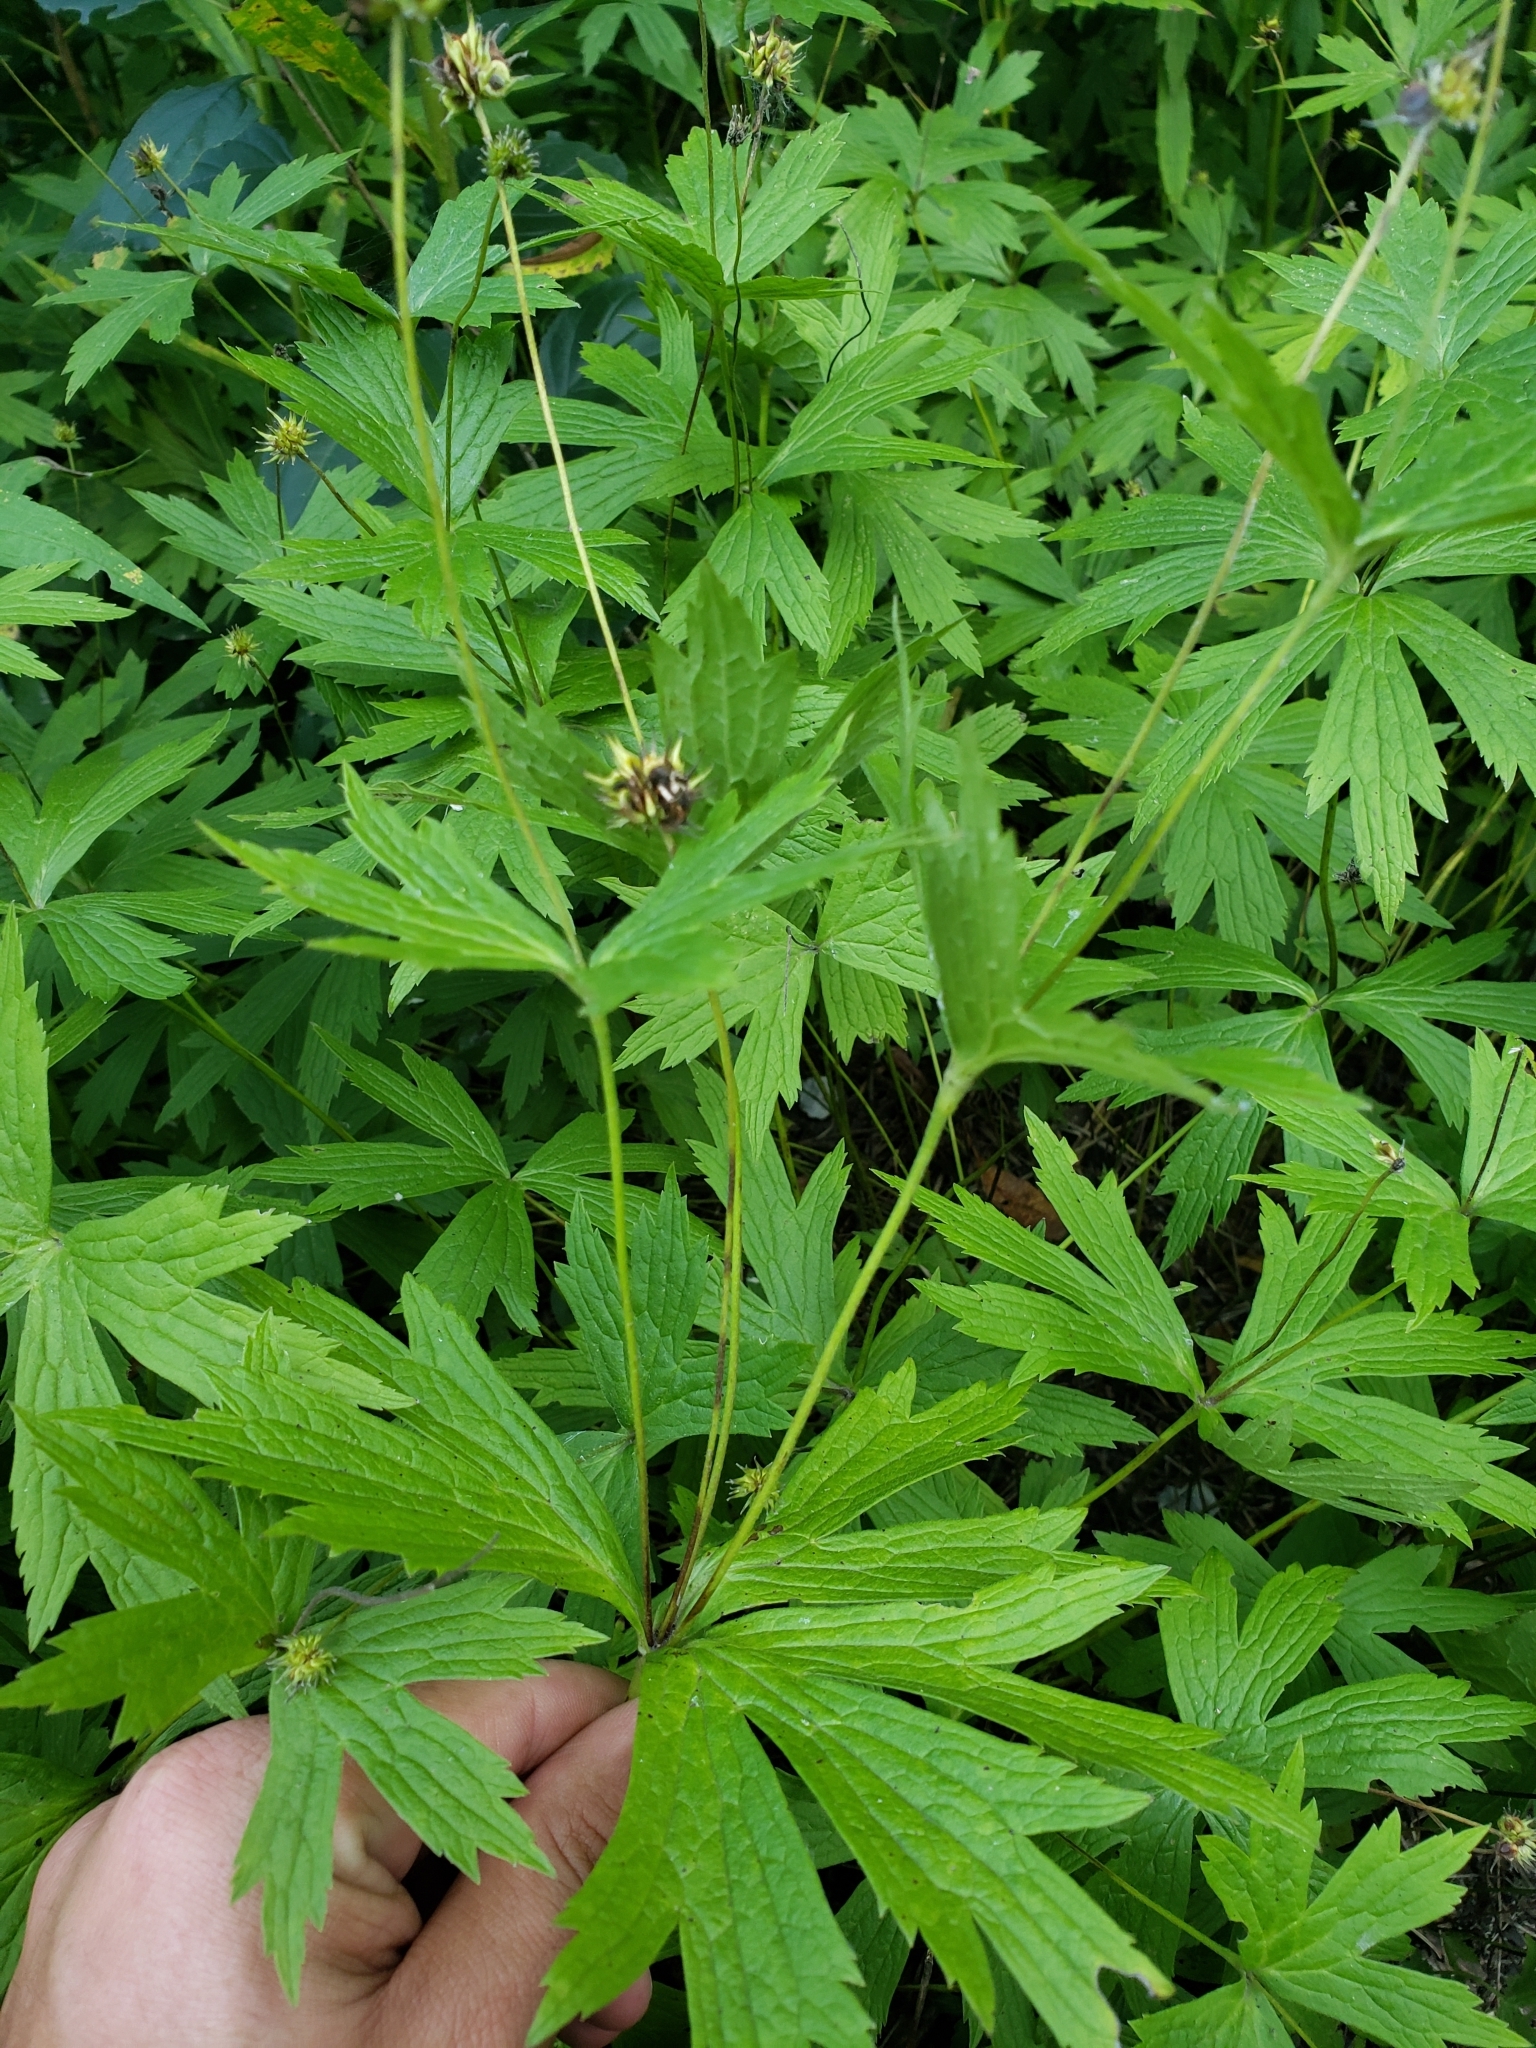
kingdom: Plantae
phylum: Tracheophyta
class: Magnoliopsida
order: Ranunculales
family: Ranunculaceae
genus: Anemonastrum
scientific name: Anemonastrum canadense
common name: Canada anemone
